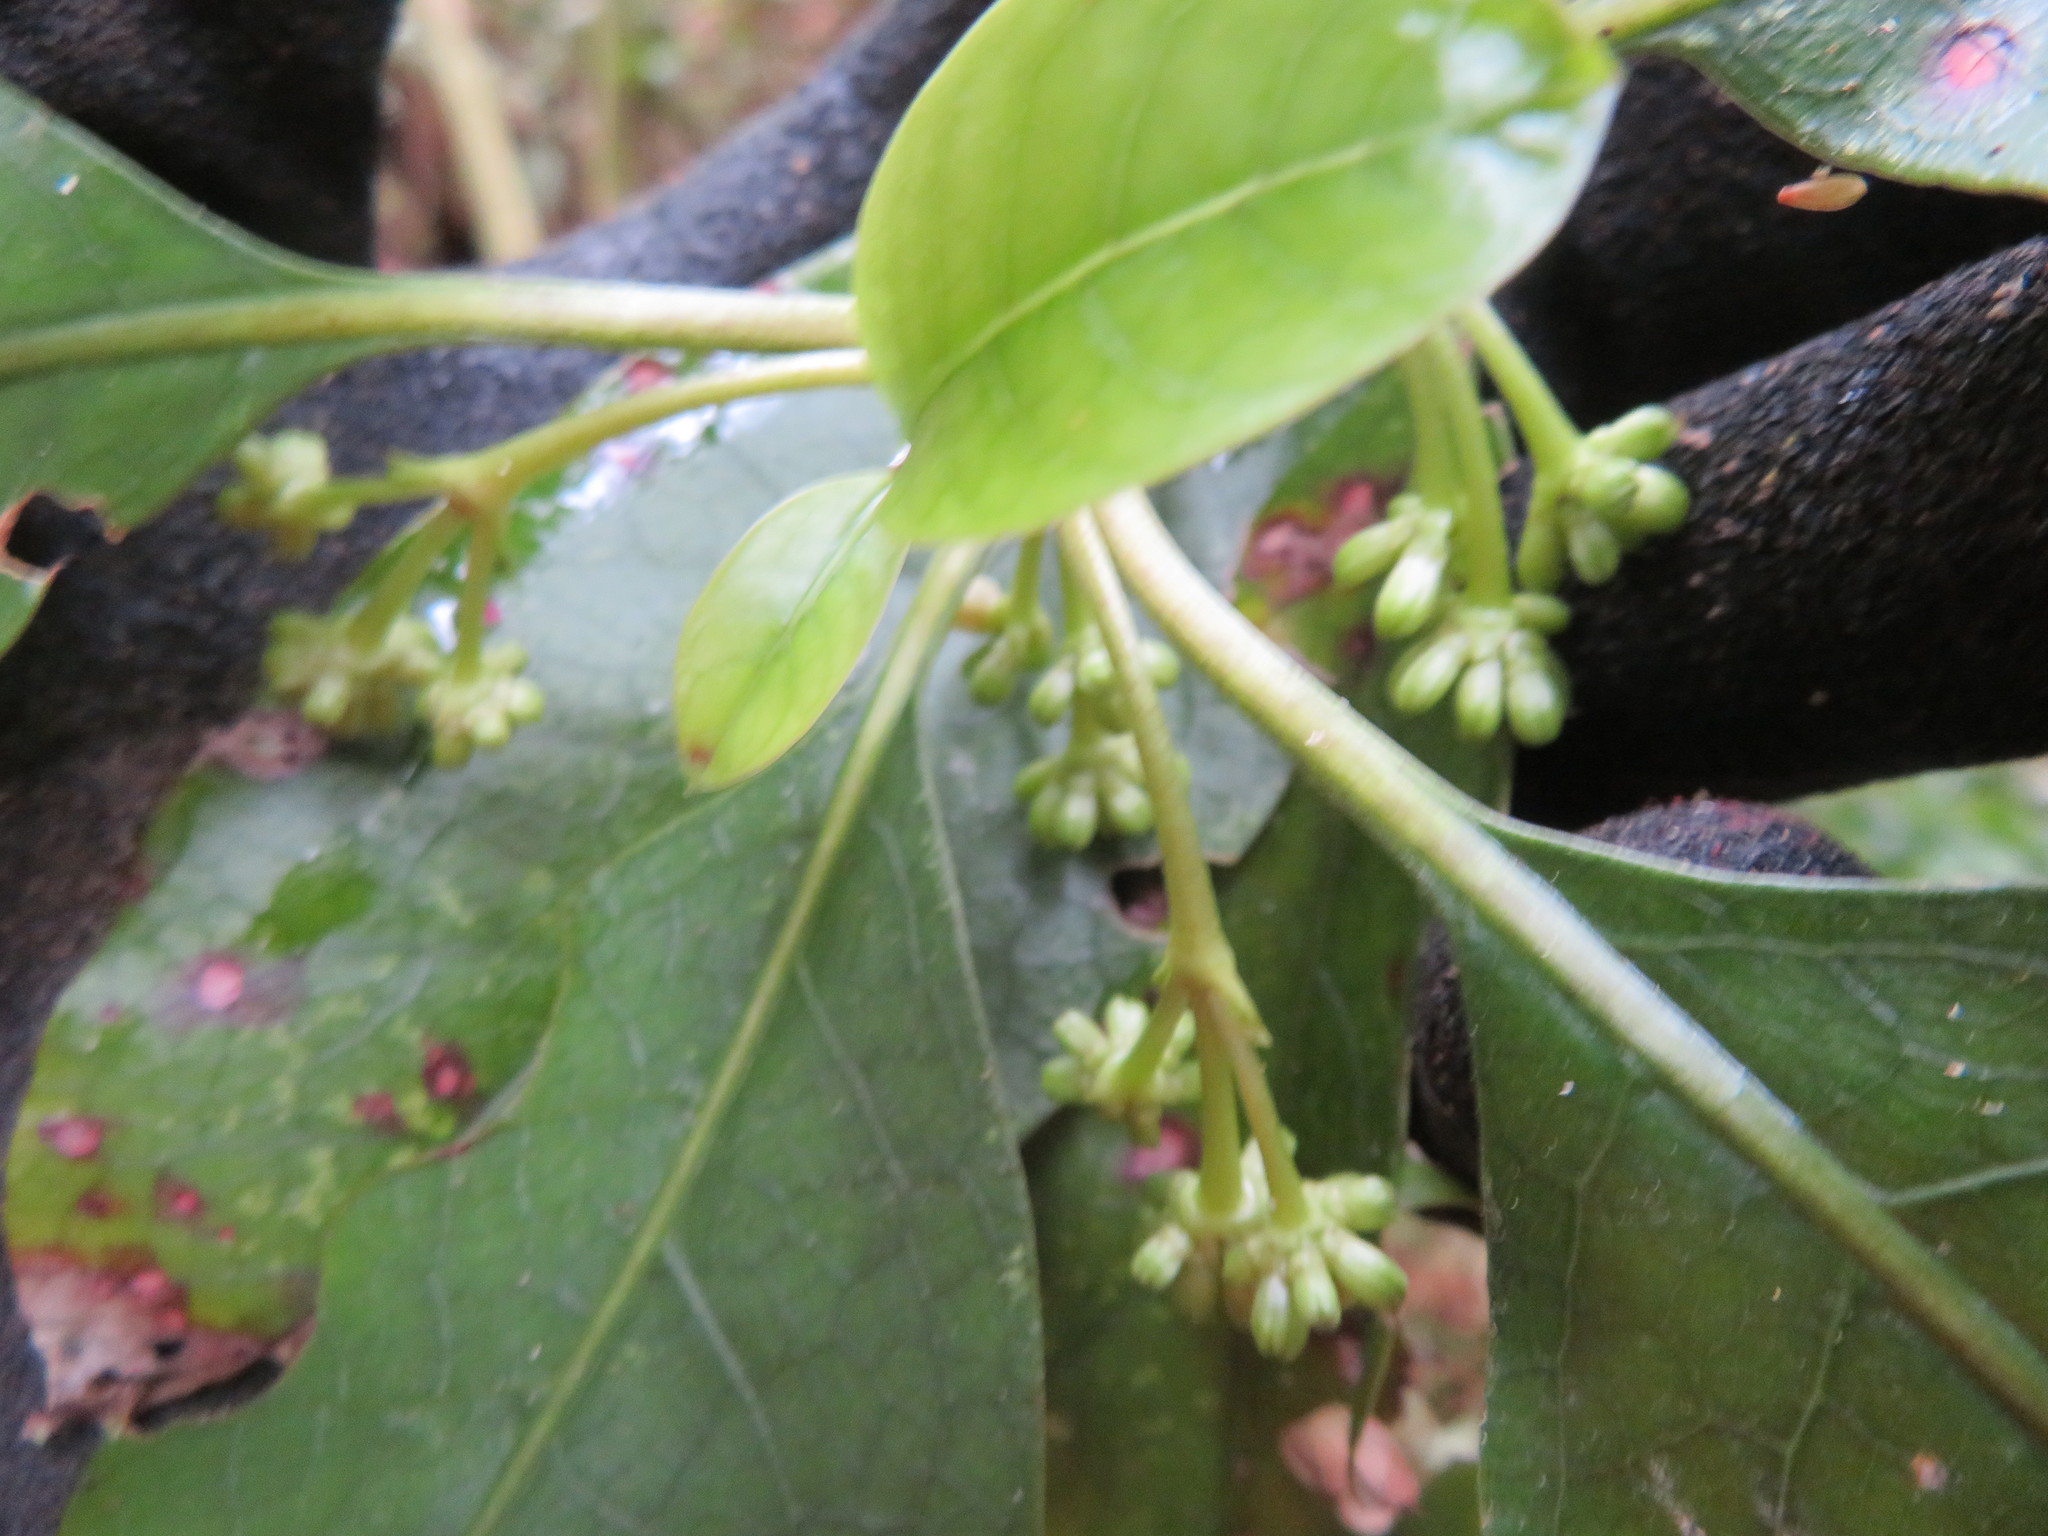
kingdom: Plantae
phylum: Tracheophyta
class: Magnoliopsida
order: Gentianales
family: Rubiaceae
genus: Coprosma
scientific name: Coprosma autumnalis
